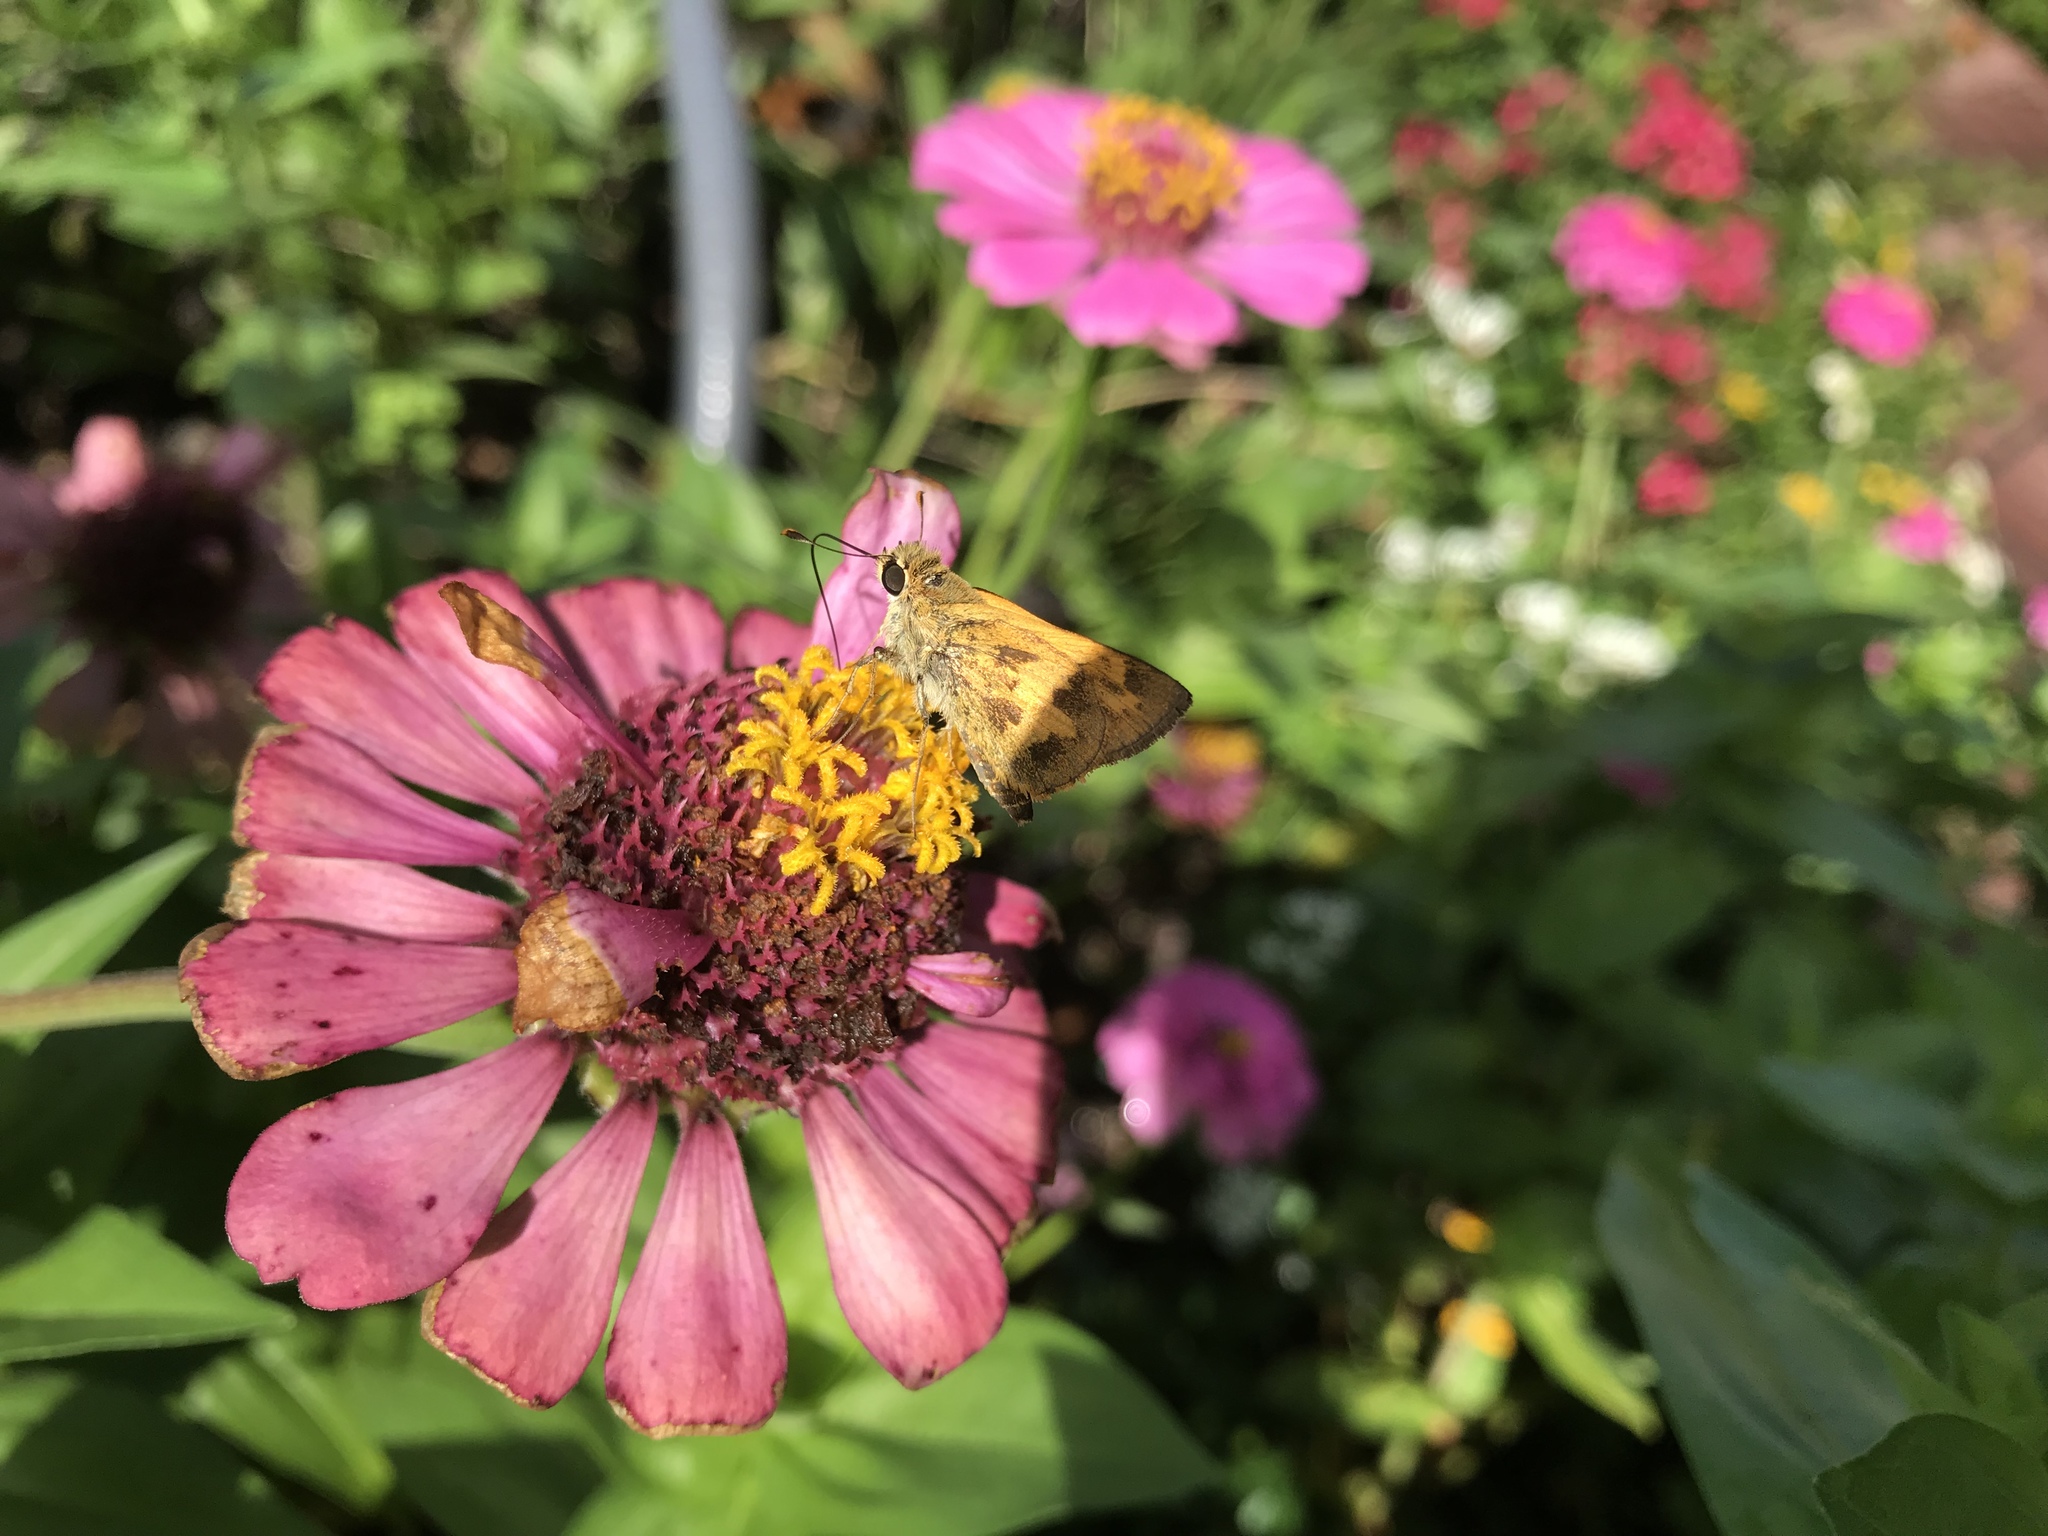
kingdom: Animalia
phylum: Arthropoda
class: Insecta
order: Lepidoptera
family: Hesperiidae
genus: Polites
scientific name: Polites vibex
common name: Whirlabout
